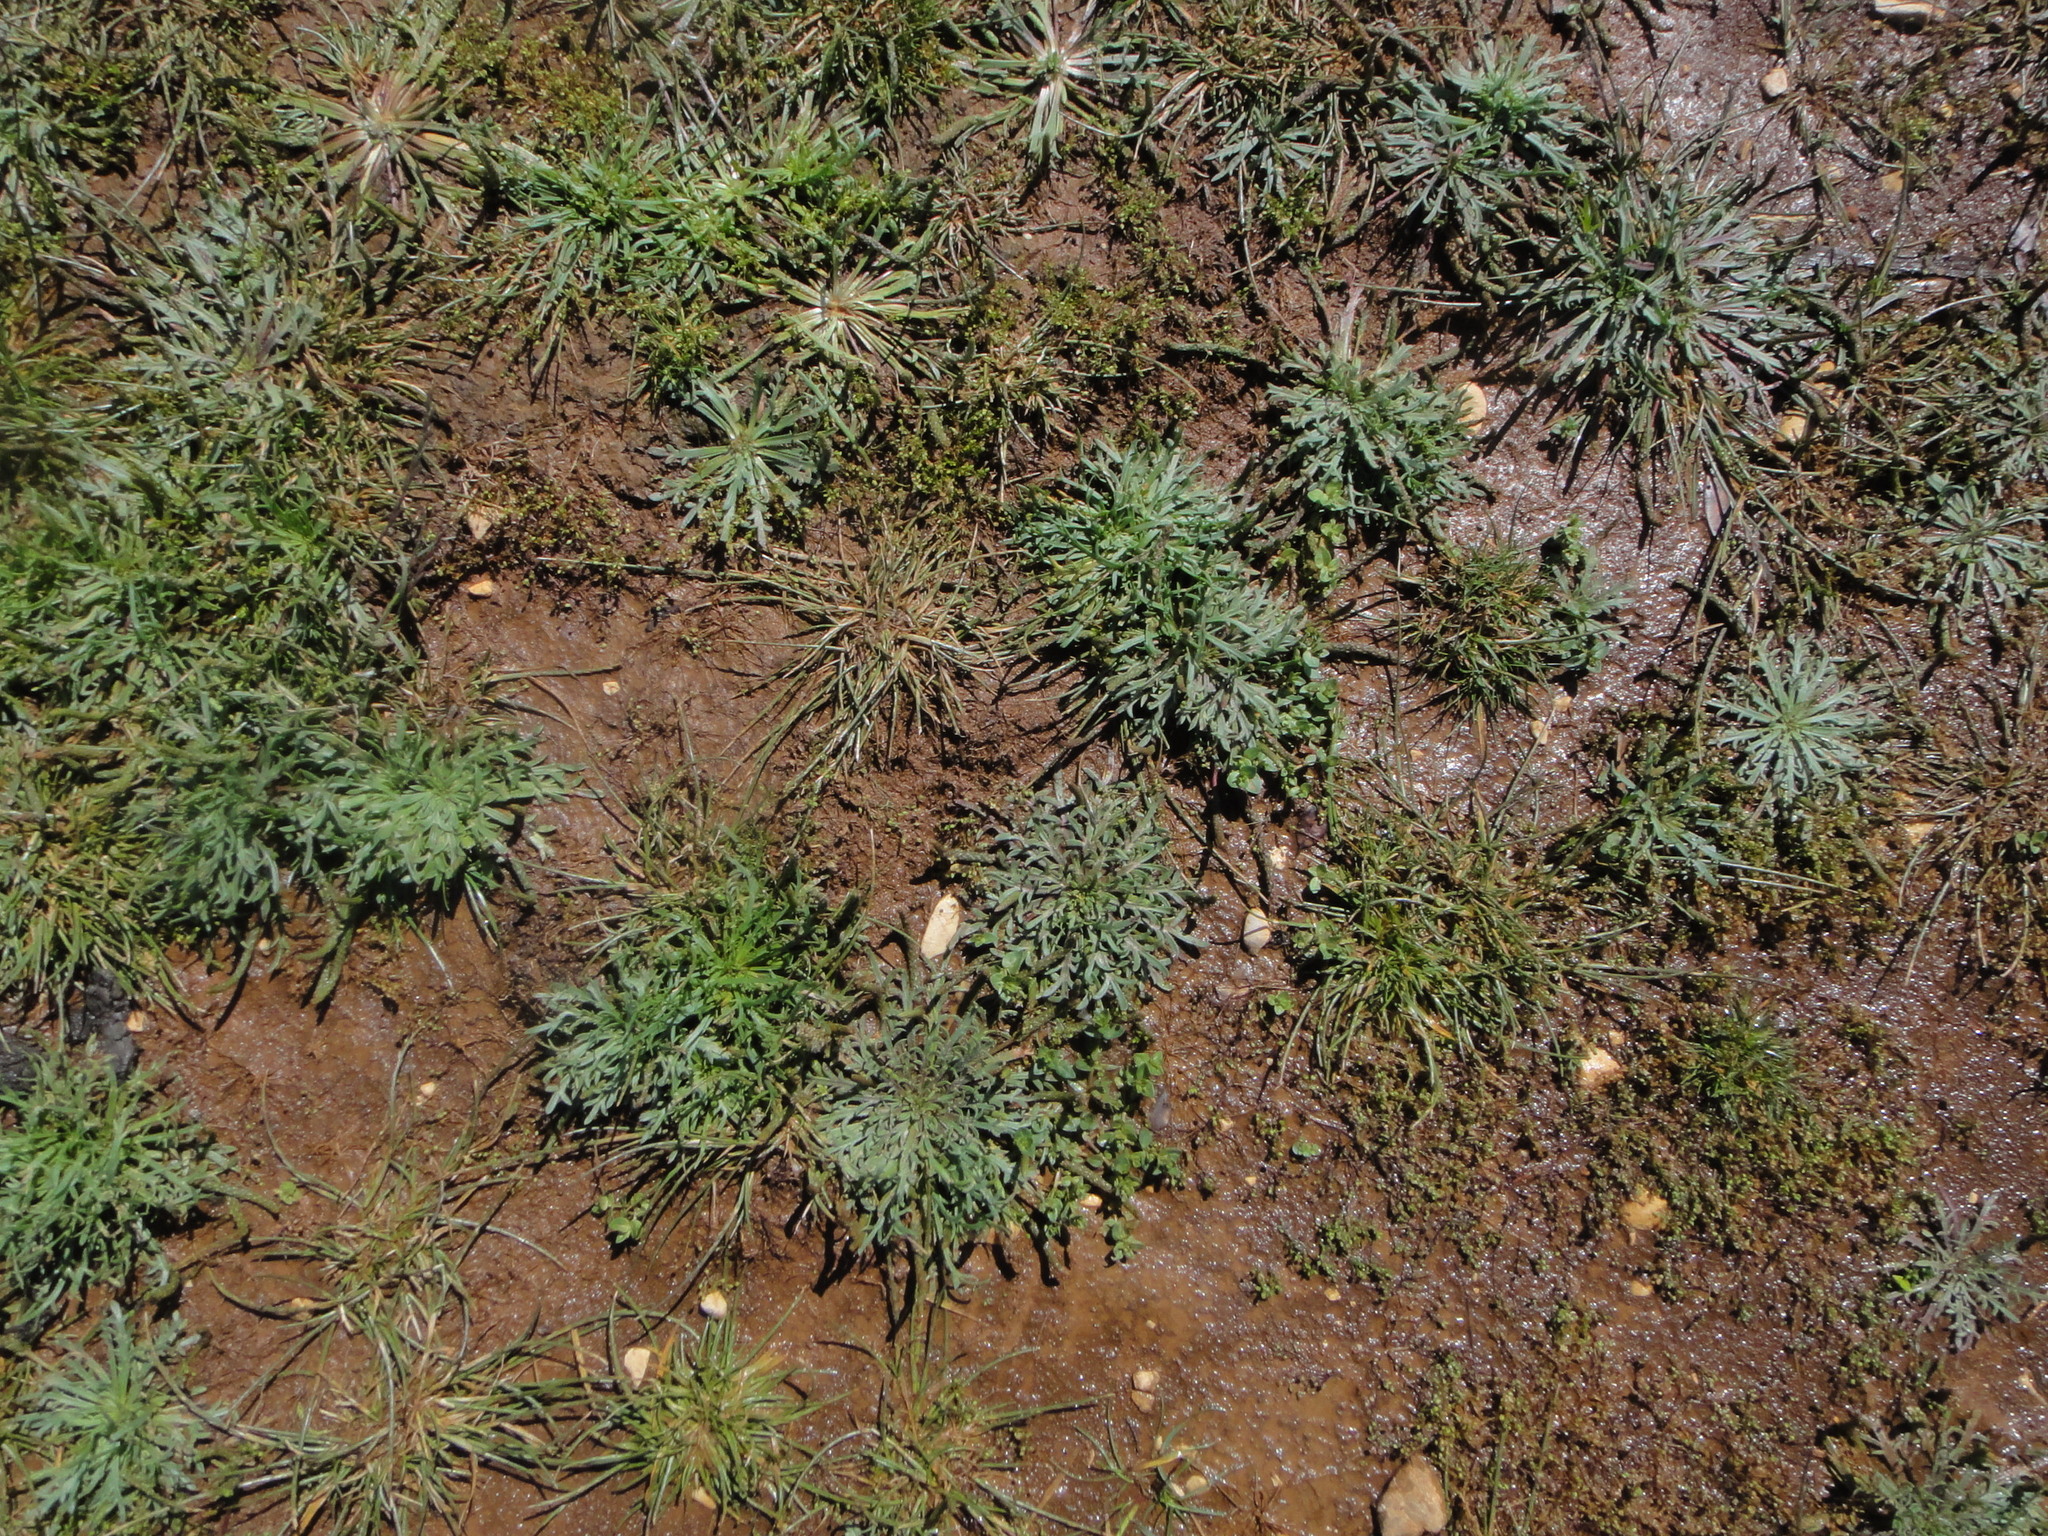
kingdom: Plantae
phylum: Tracheophyta
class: Magnoliopsida
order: Lamiales
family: Plantaginaceae
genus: Plantago
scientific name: Plantago coronopus
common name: Buck's-horn plantain
